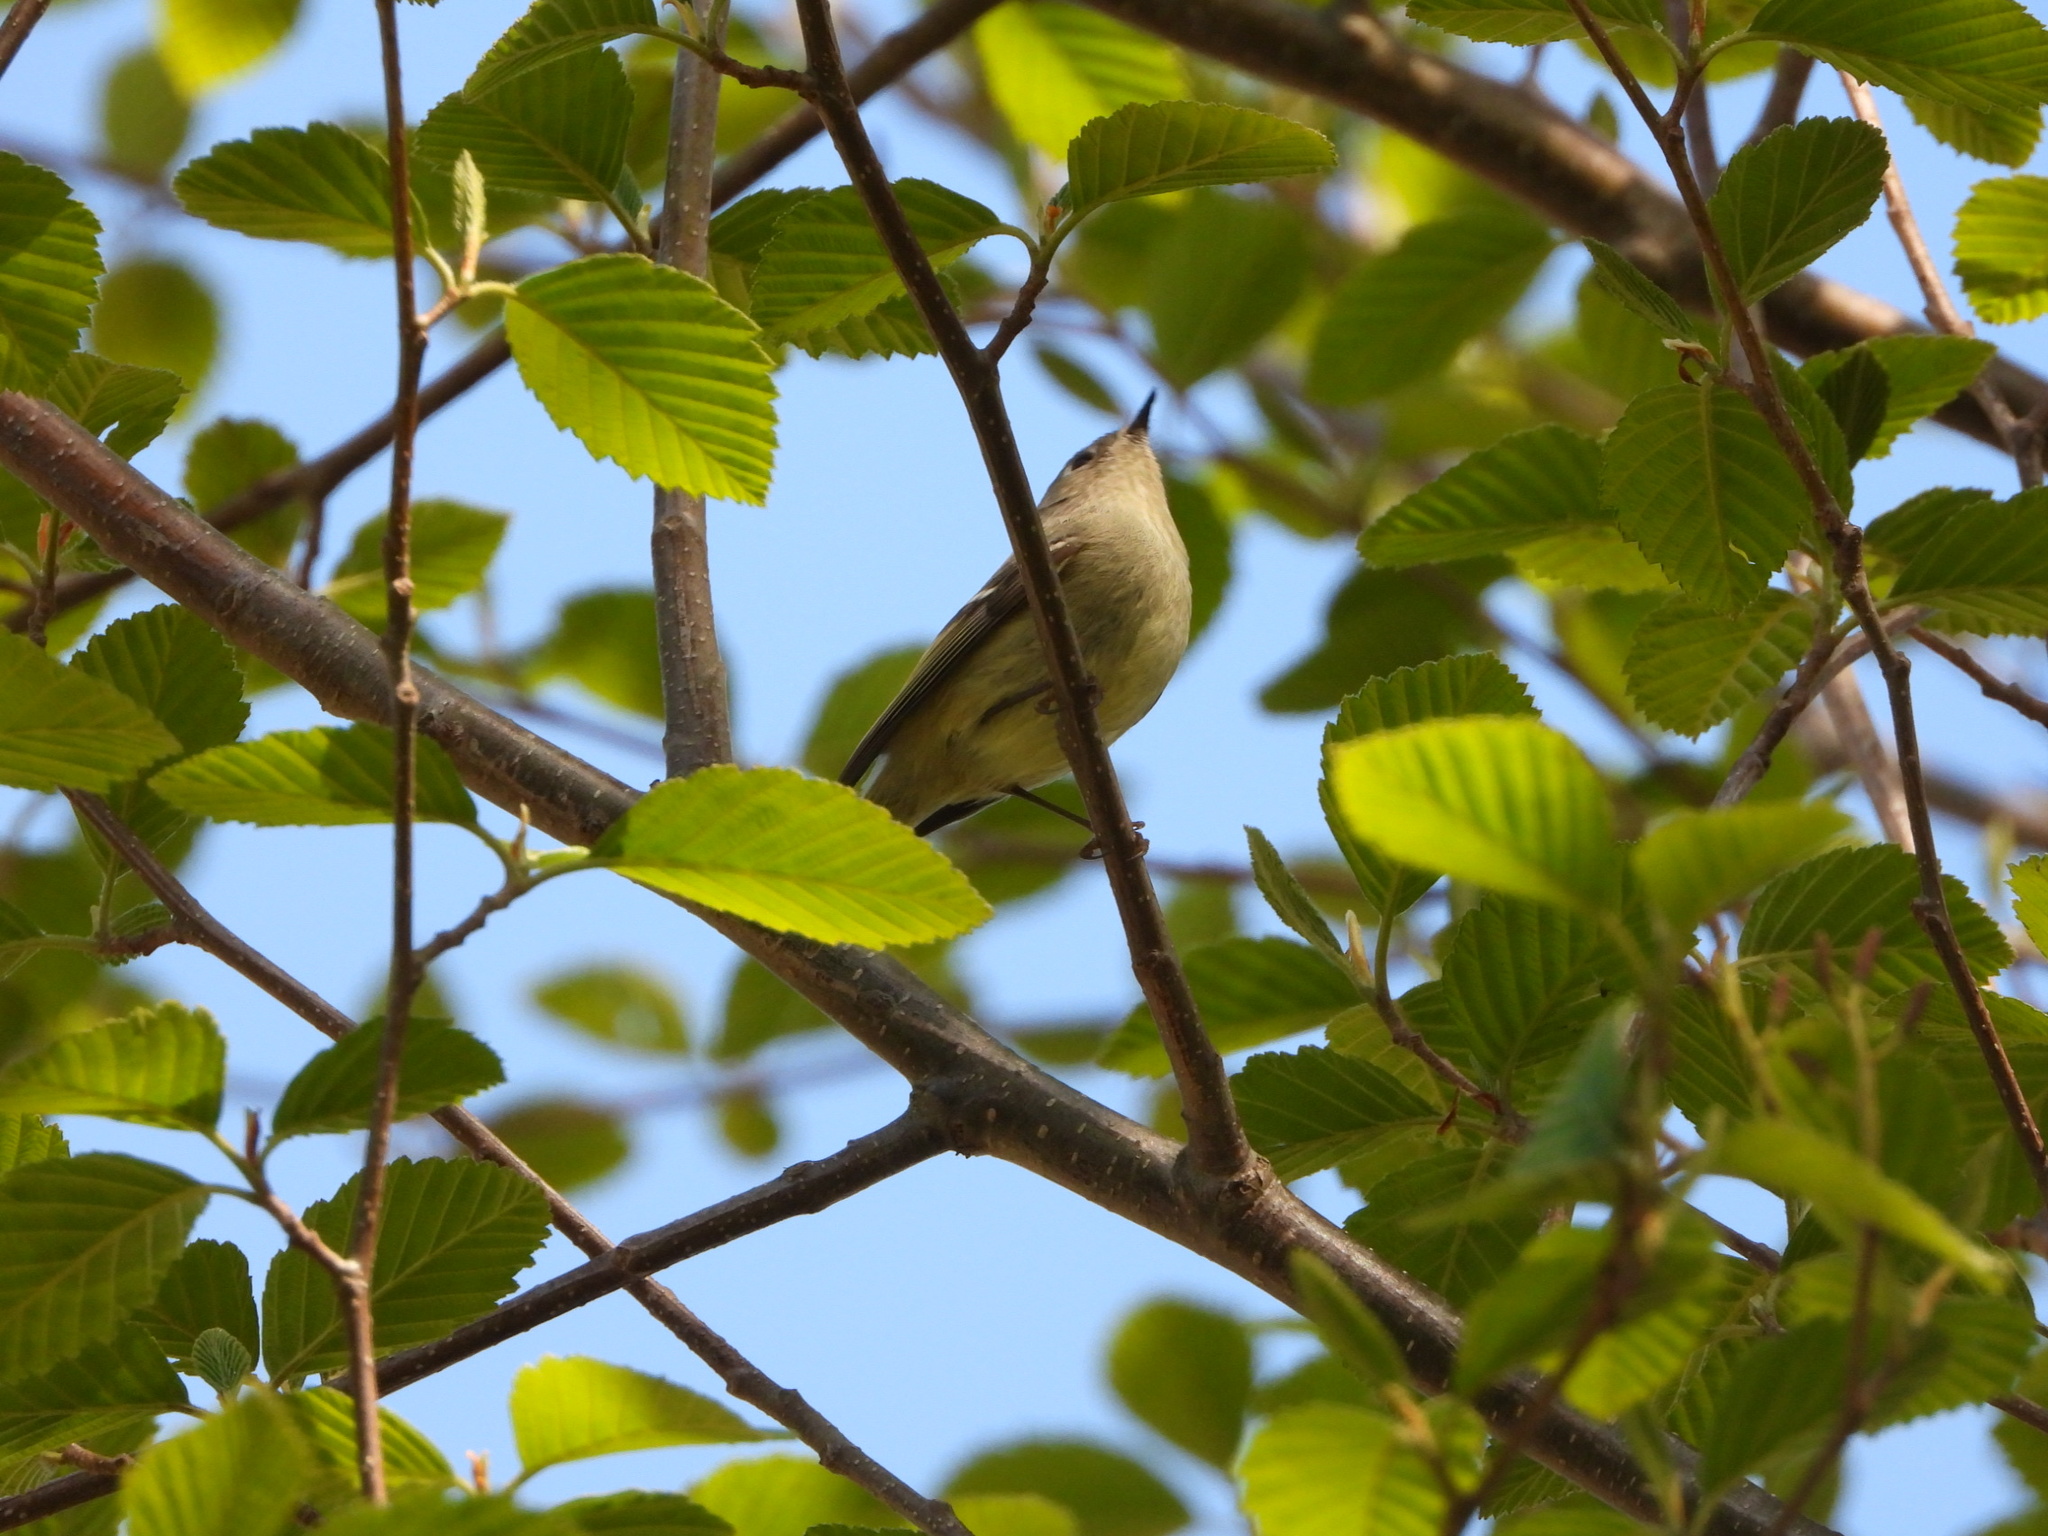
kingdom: Animalia
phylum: Chordata
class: Aves
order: Passeriformes
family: Regulidae
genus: Regulus
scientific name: Regulus calendula
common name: Ruby-crowned kinglet
